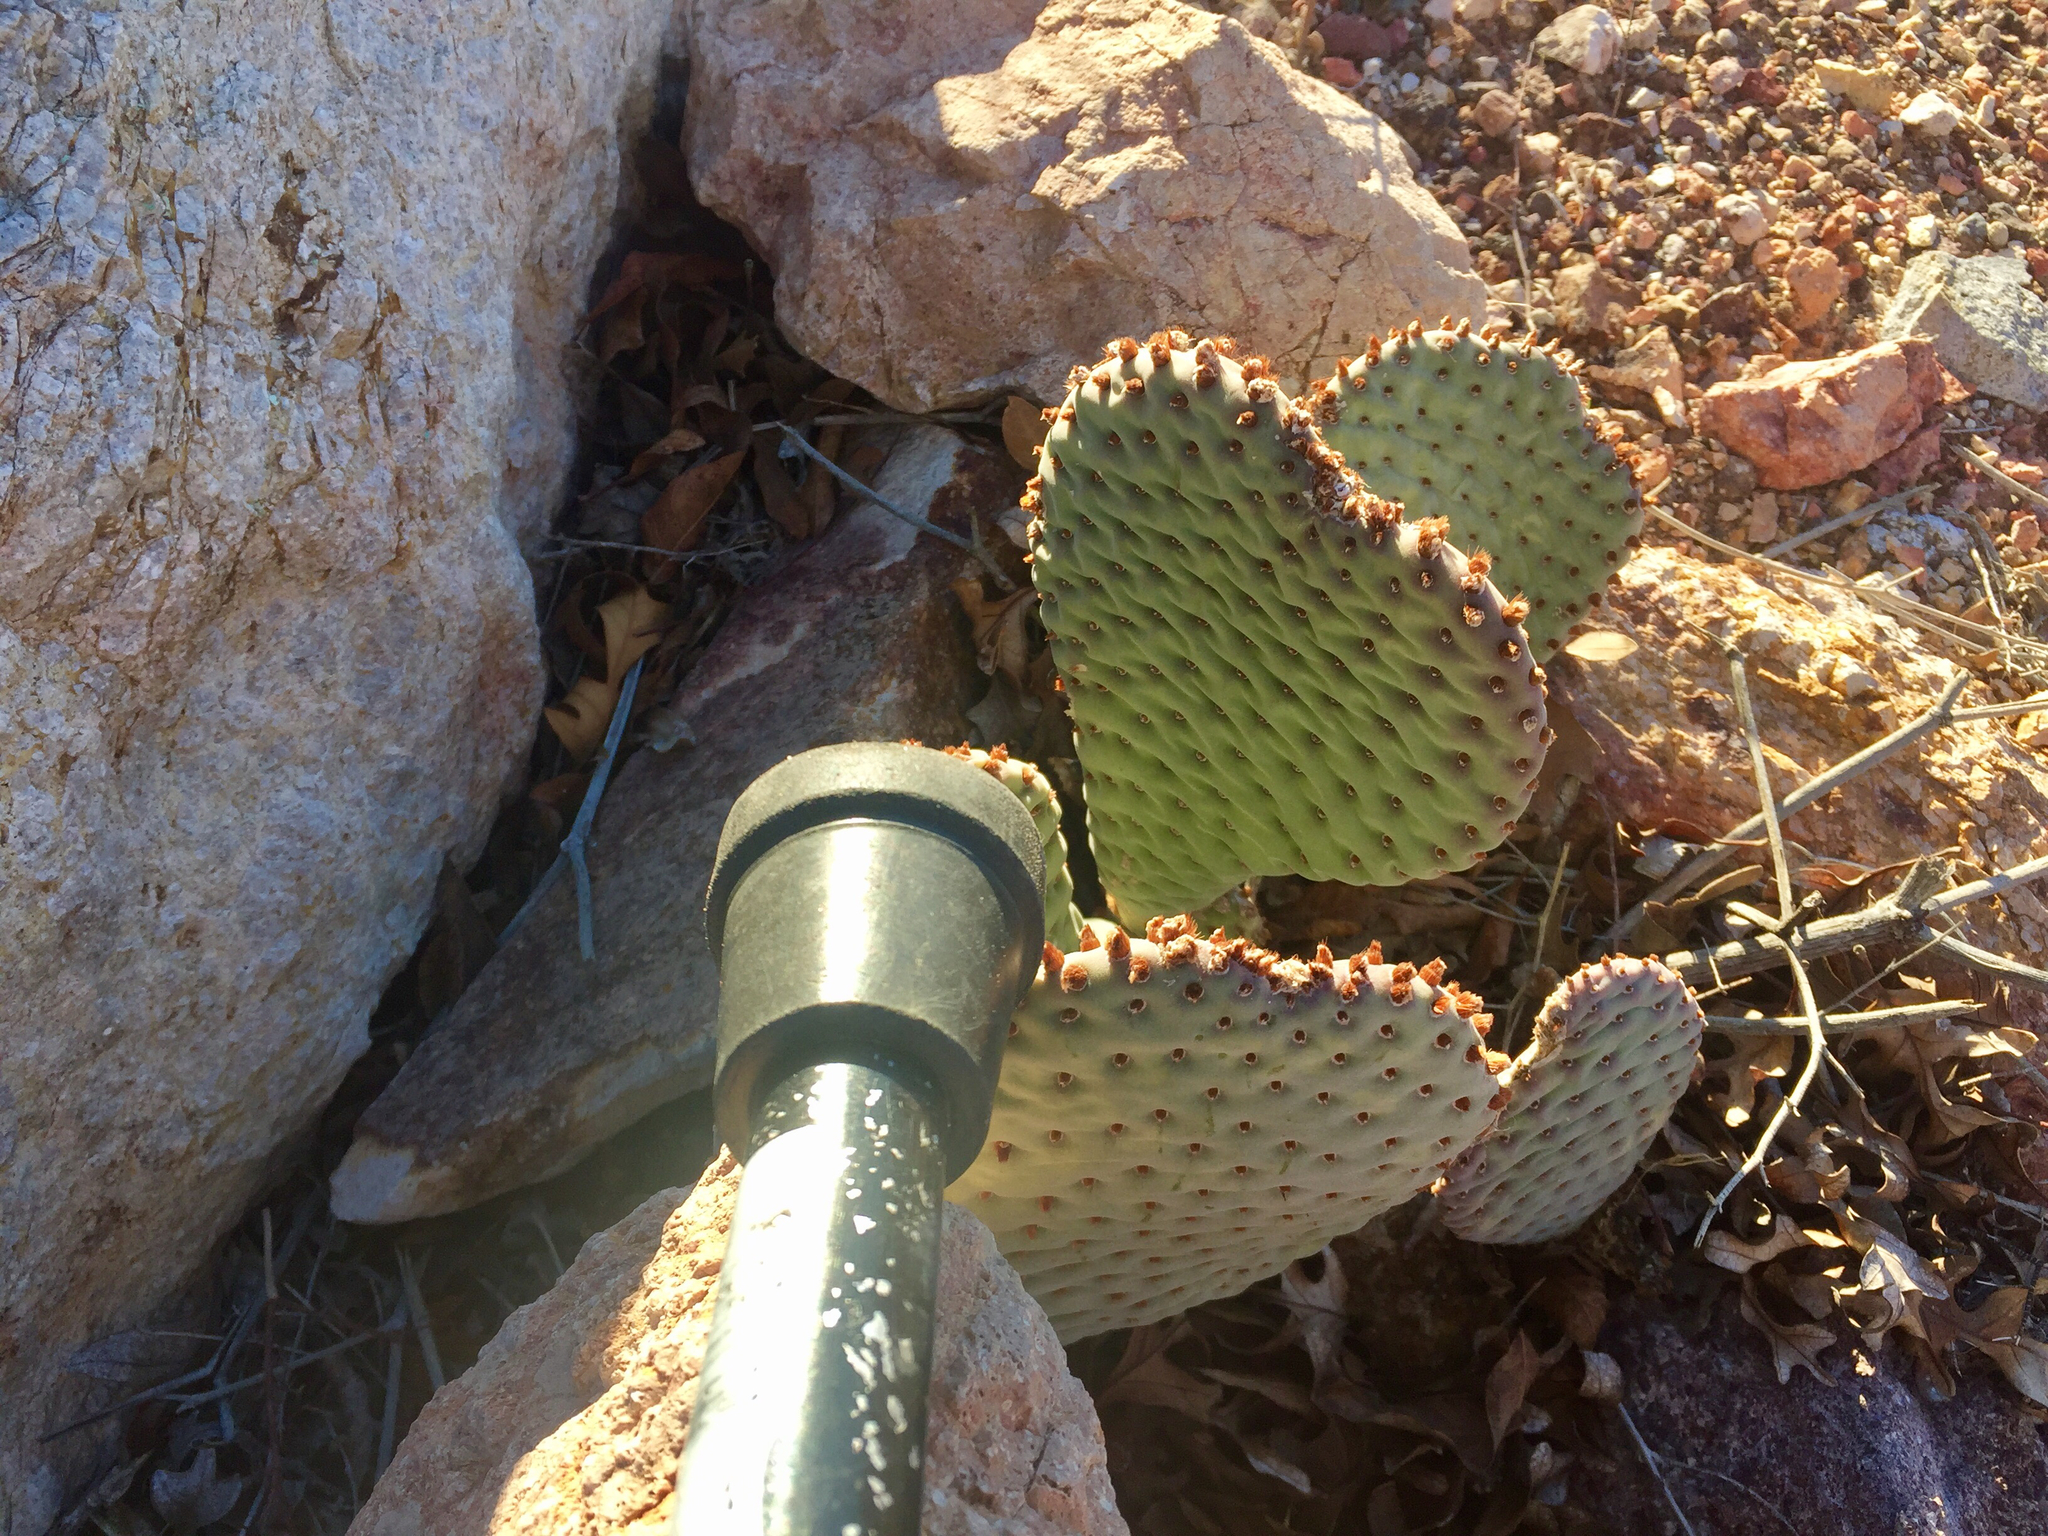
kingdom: Plantae
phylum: Tracheophyta
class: Magnoliopsida
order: Caryophyllales
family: Cactaceae
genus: Opuntia
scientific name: Opuntia basilaris
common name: Beavertail prickly-pear
